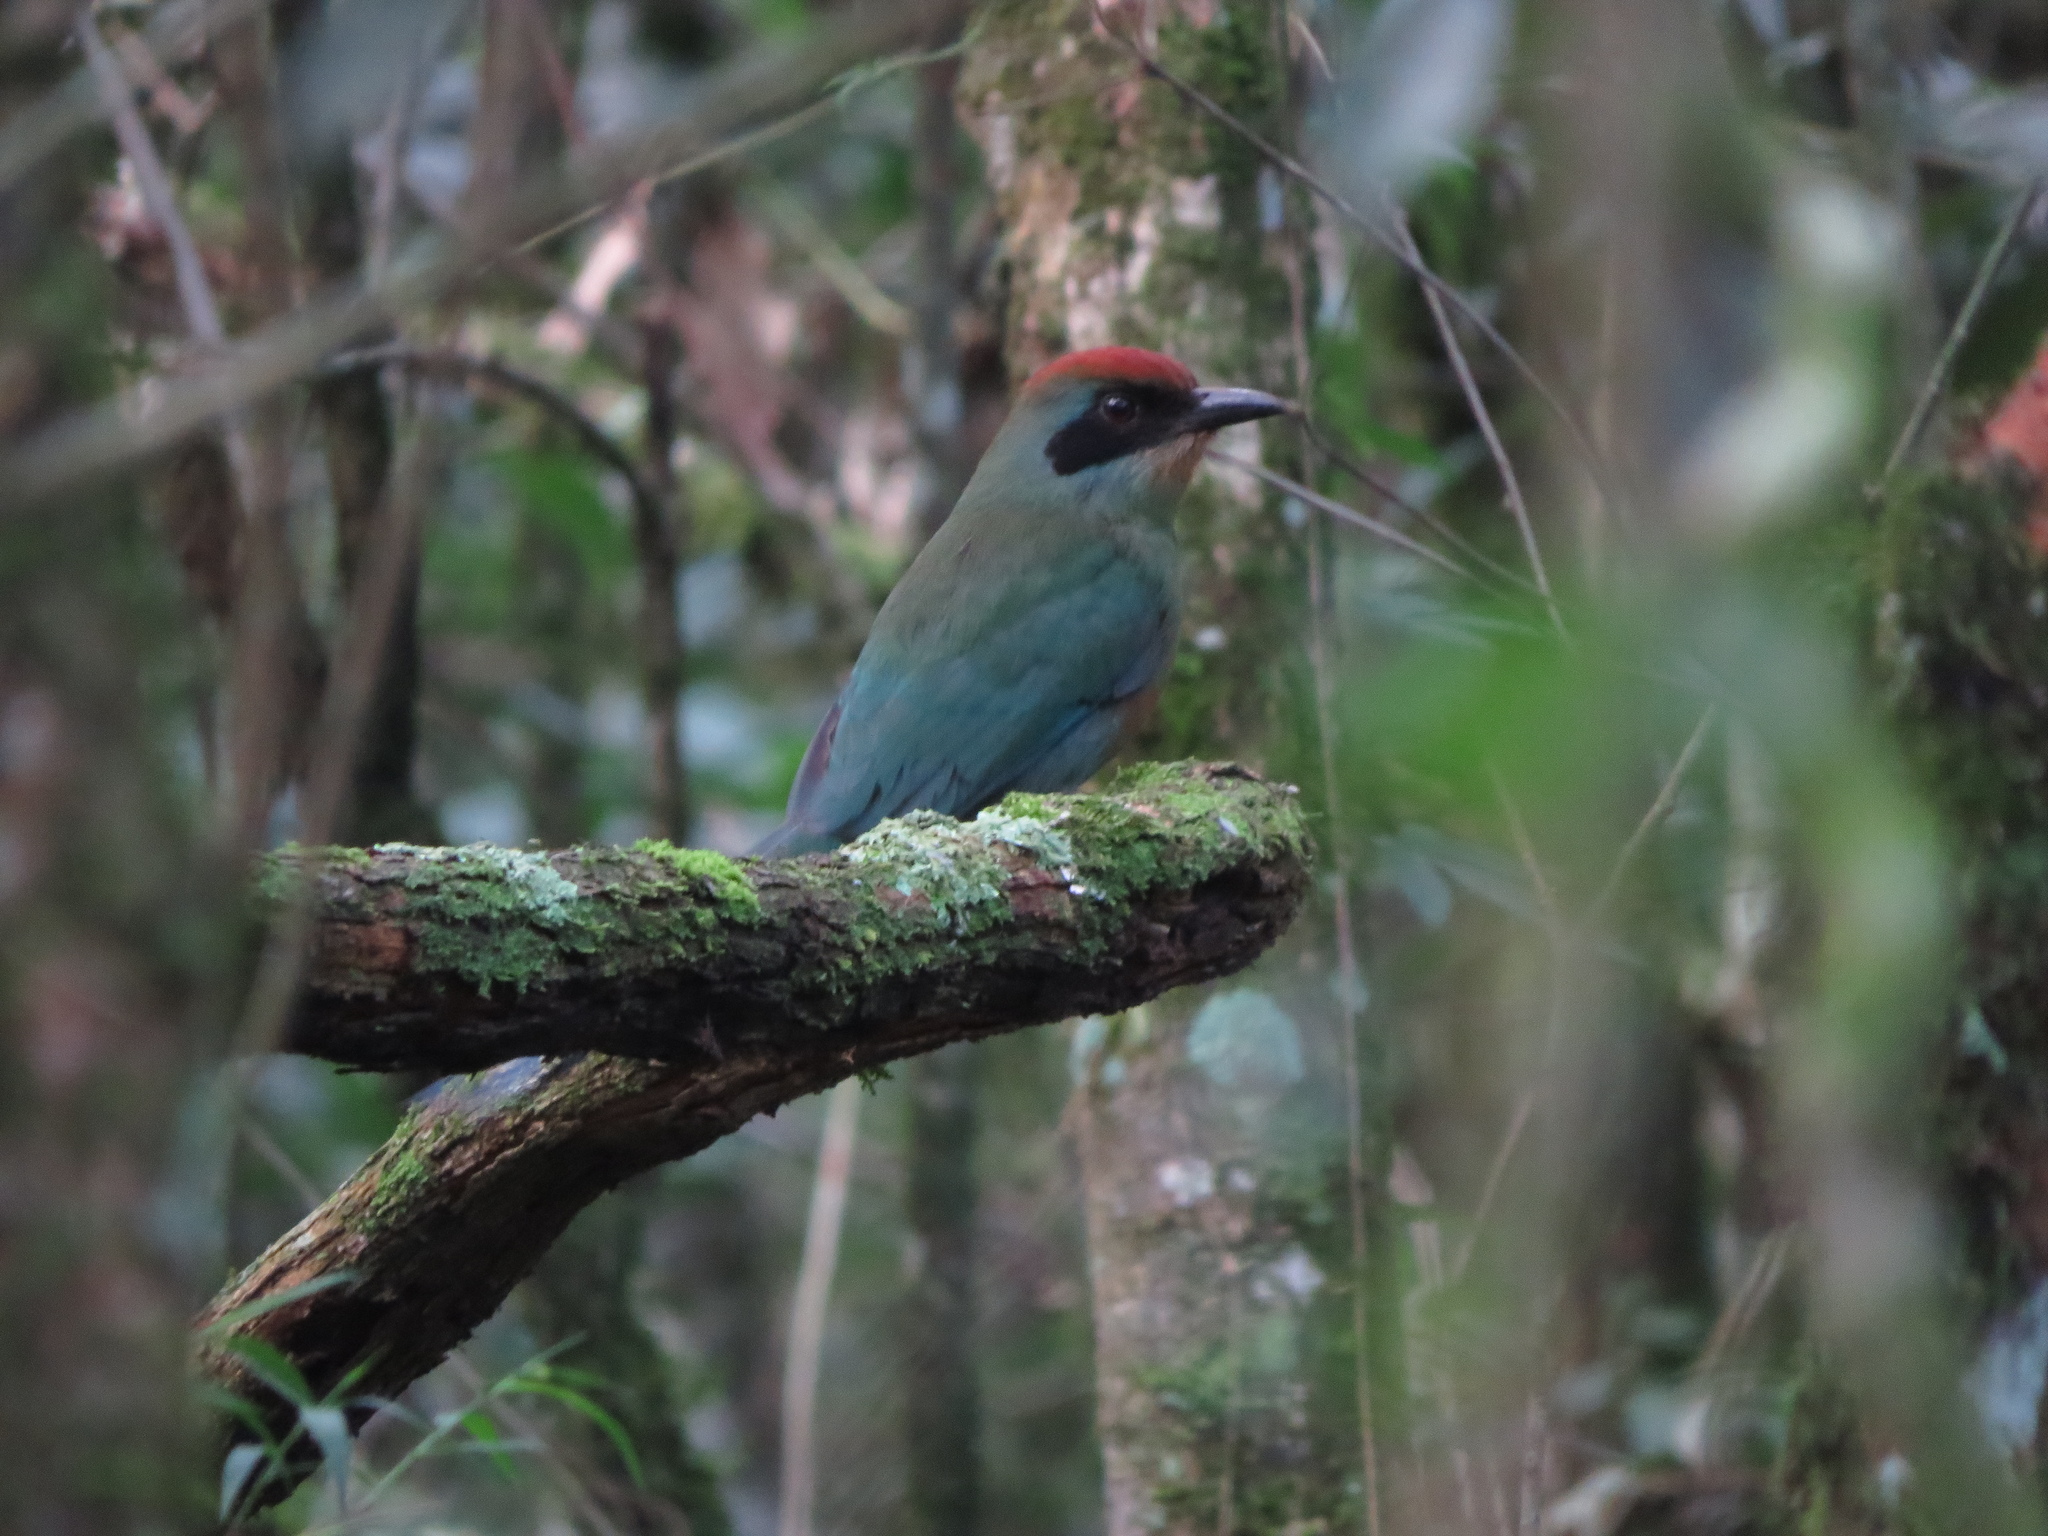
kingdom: Animalia
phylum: Chordata
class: Aves
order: Coraciiformes
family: Momotidae
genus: Baryphthengus
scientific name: Baryphthengus ruficapillus
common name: Rufous-capped motmot
